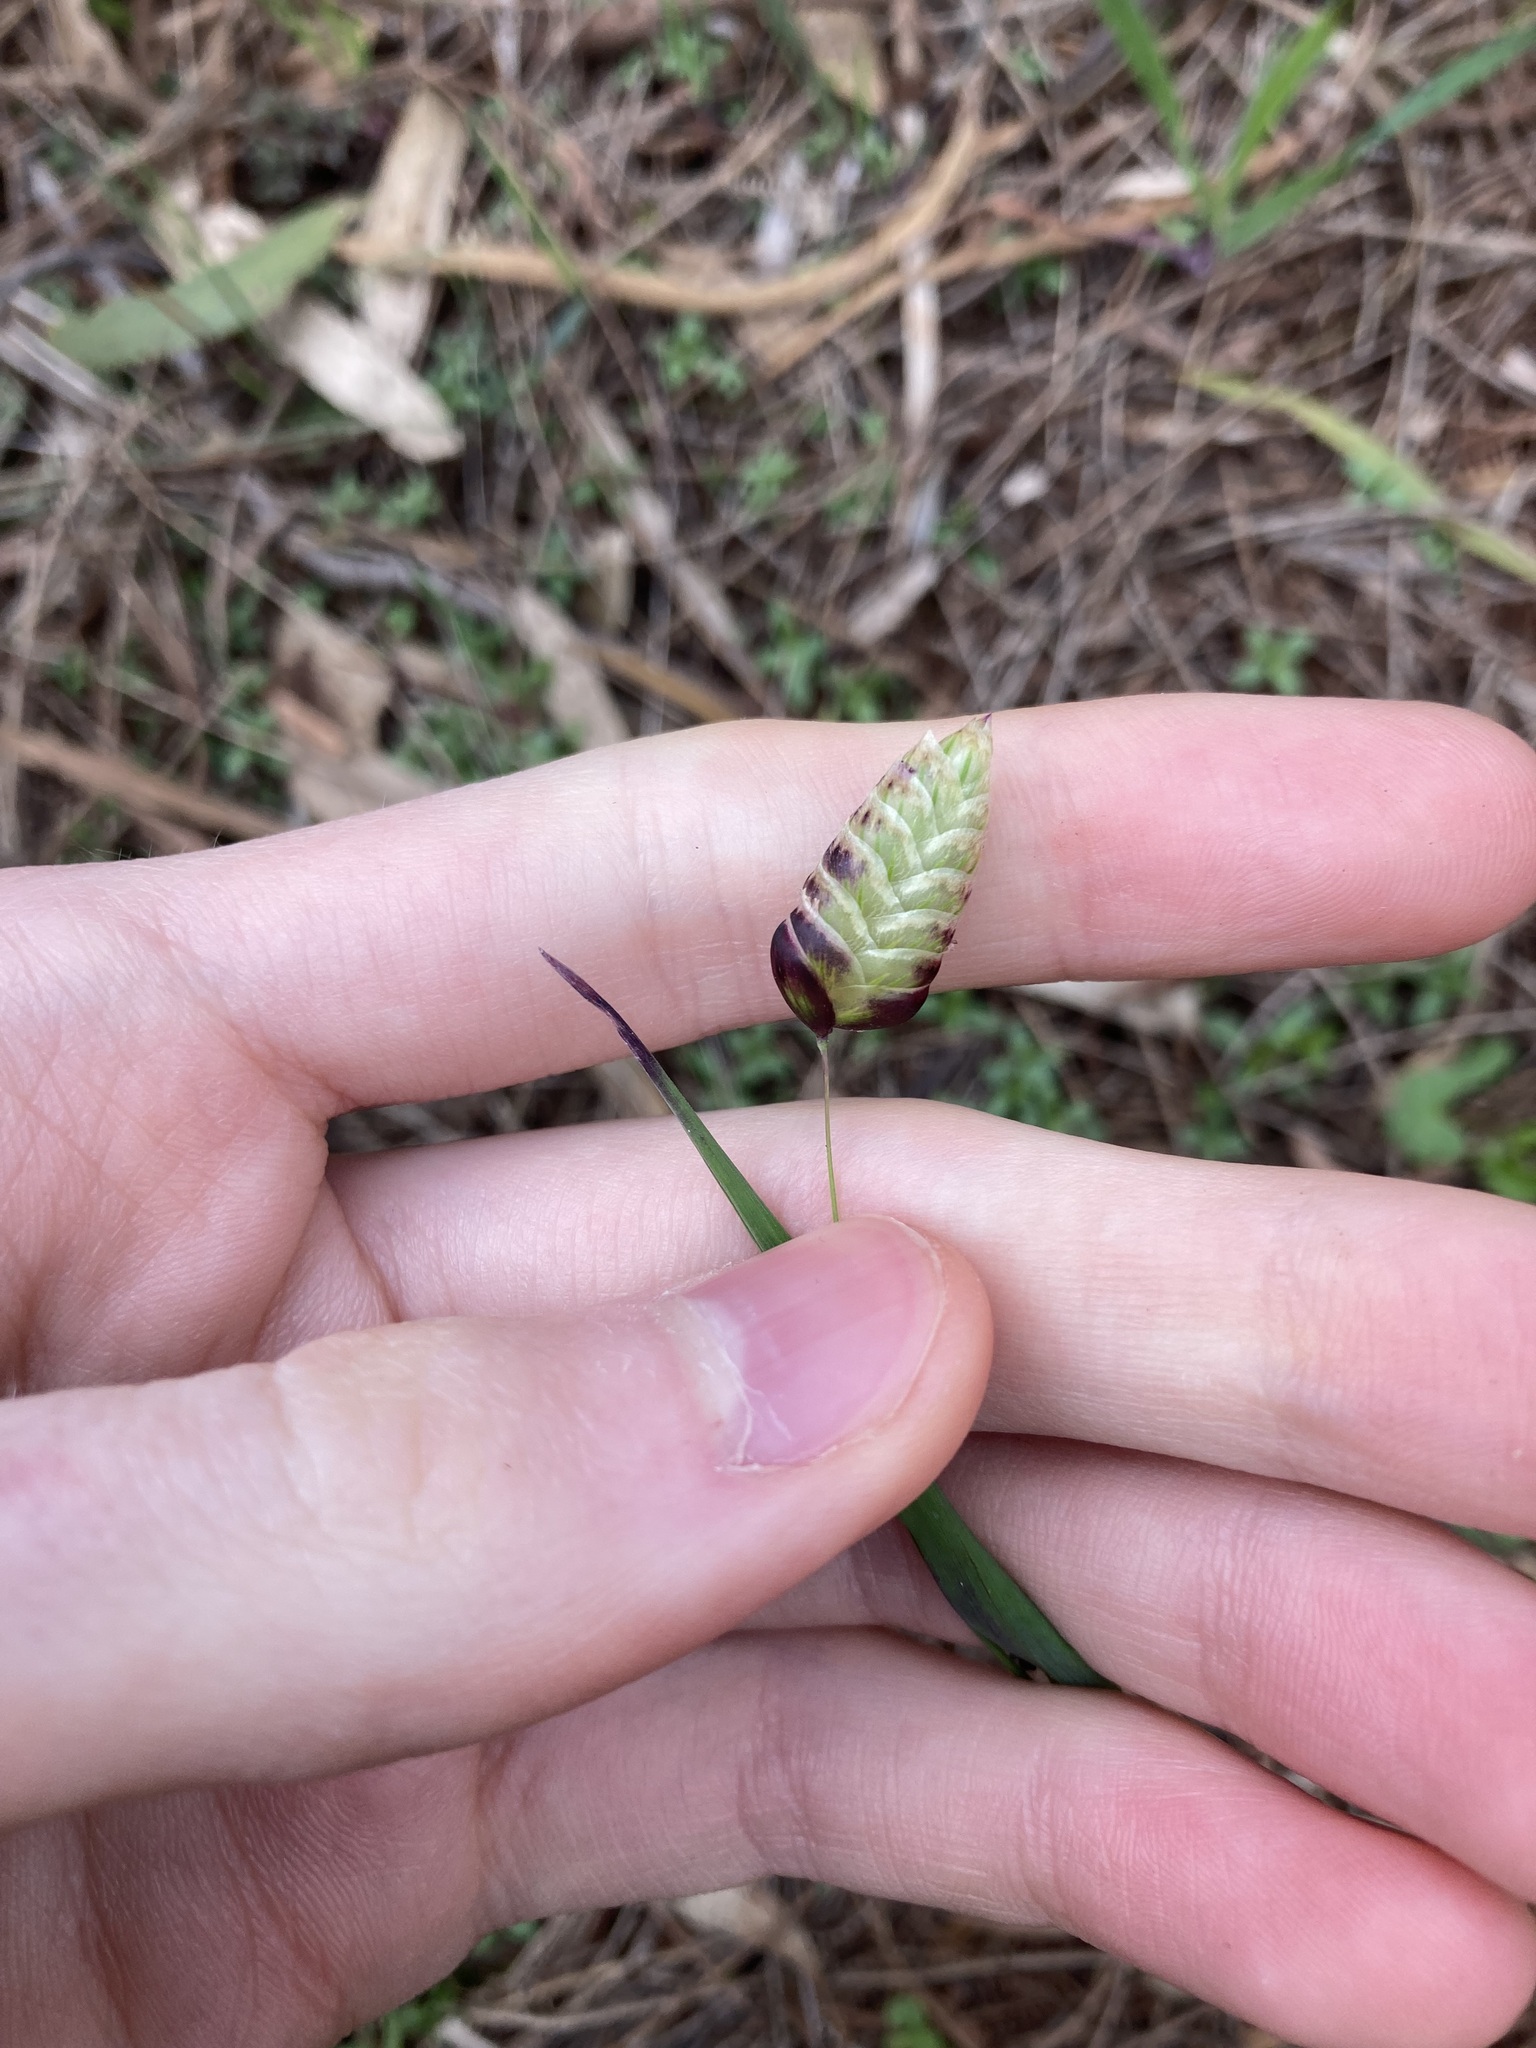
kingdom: Plantae
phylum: Tracheophyta
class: Liliopsida
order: Poales
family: Poaceae
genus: Briza
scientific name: Briza maxima
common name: Big quakinggrass
